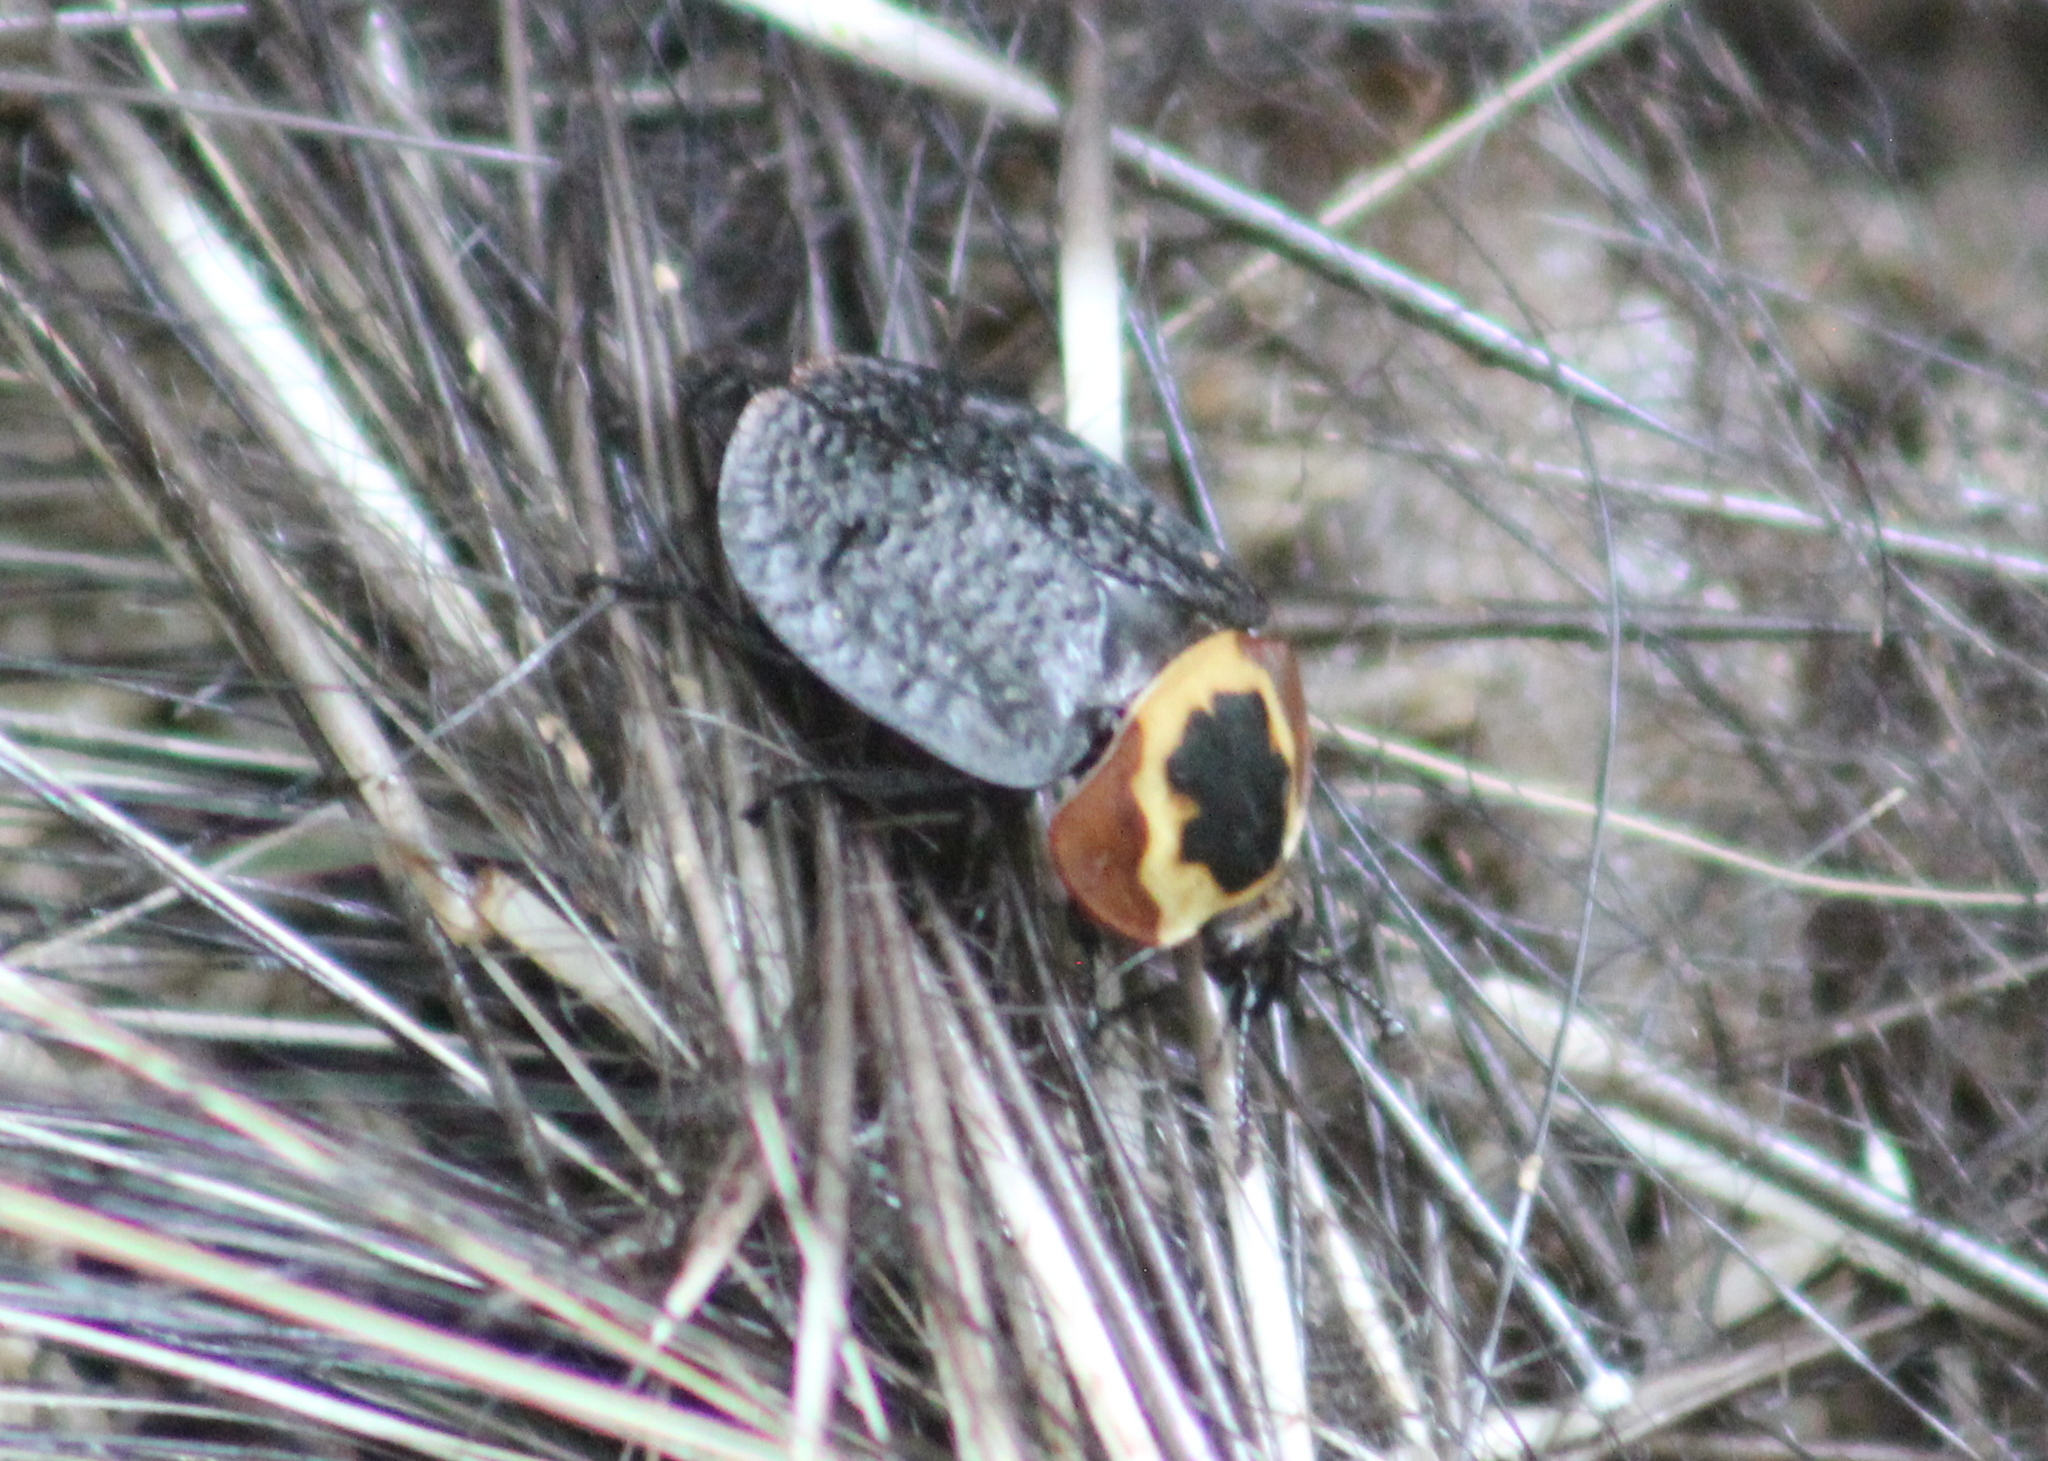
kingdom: Animalia
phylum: Arthropoda
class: Insecta
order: Coleoptera
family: Staphylinidae
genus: Necrophila
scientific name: Necrophila americana
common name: American carrion beetle
